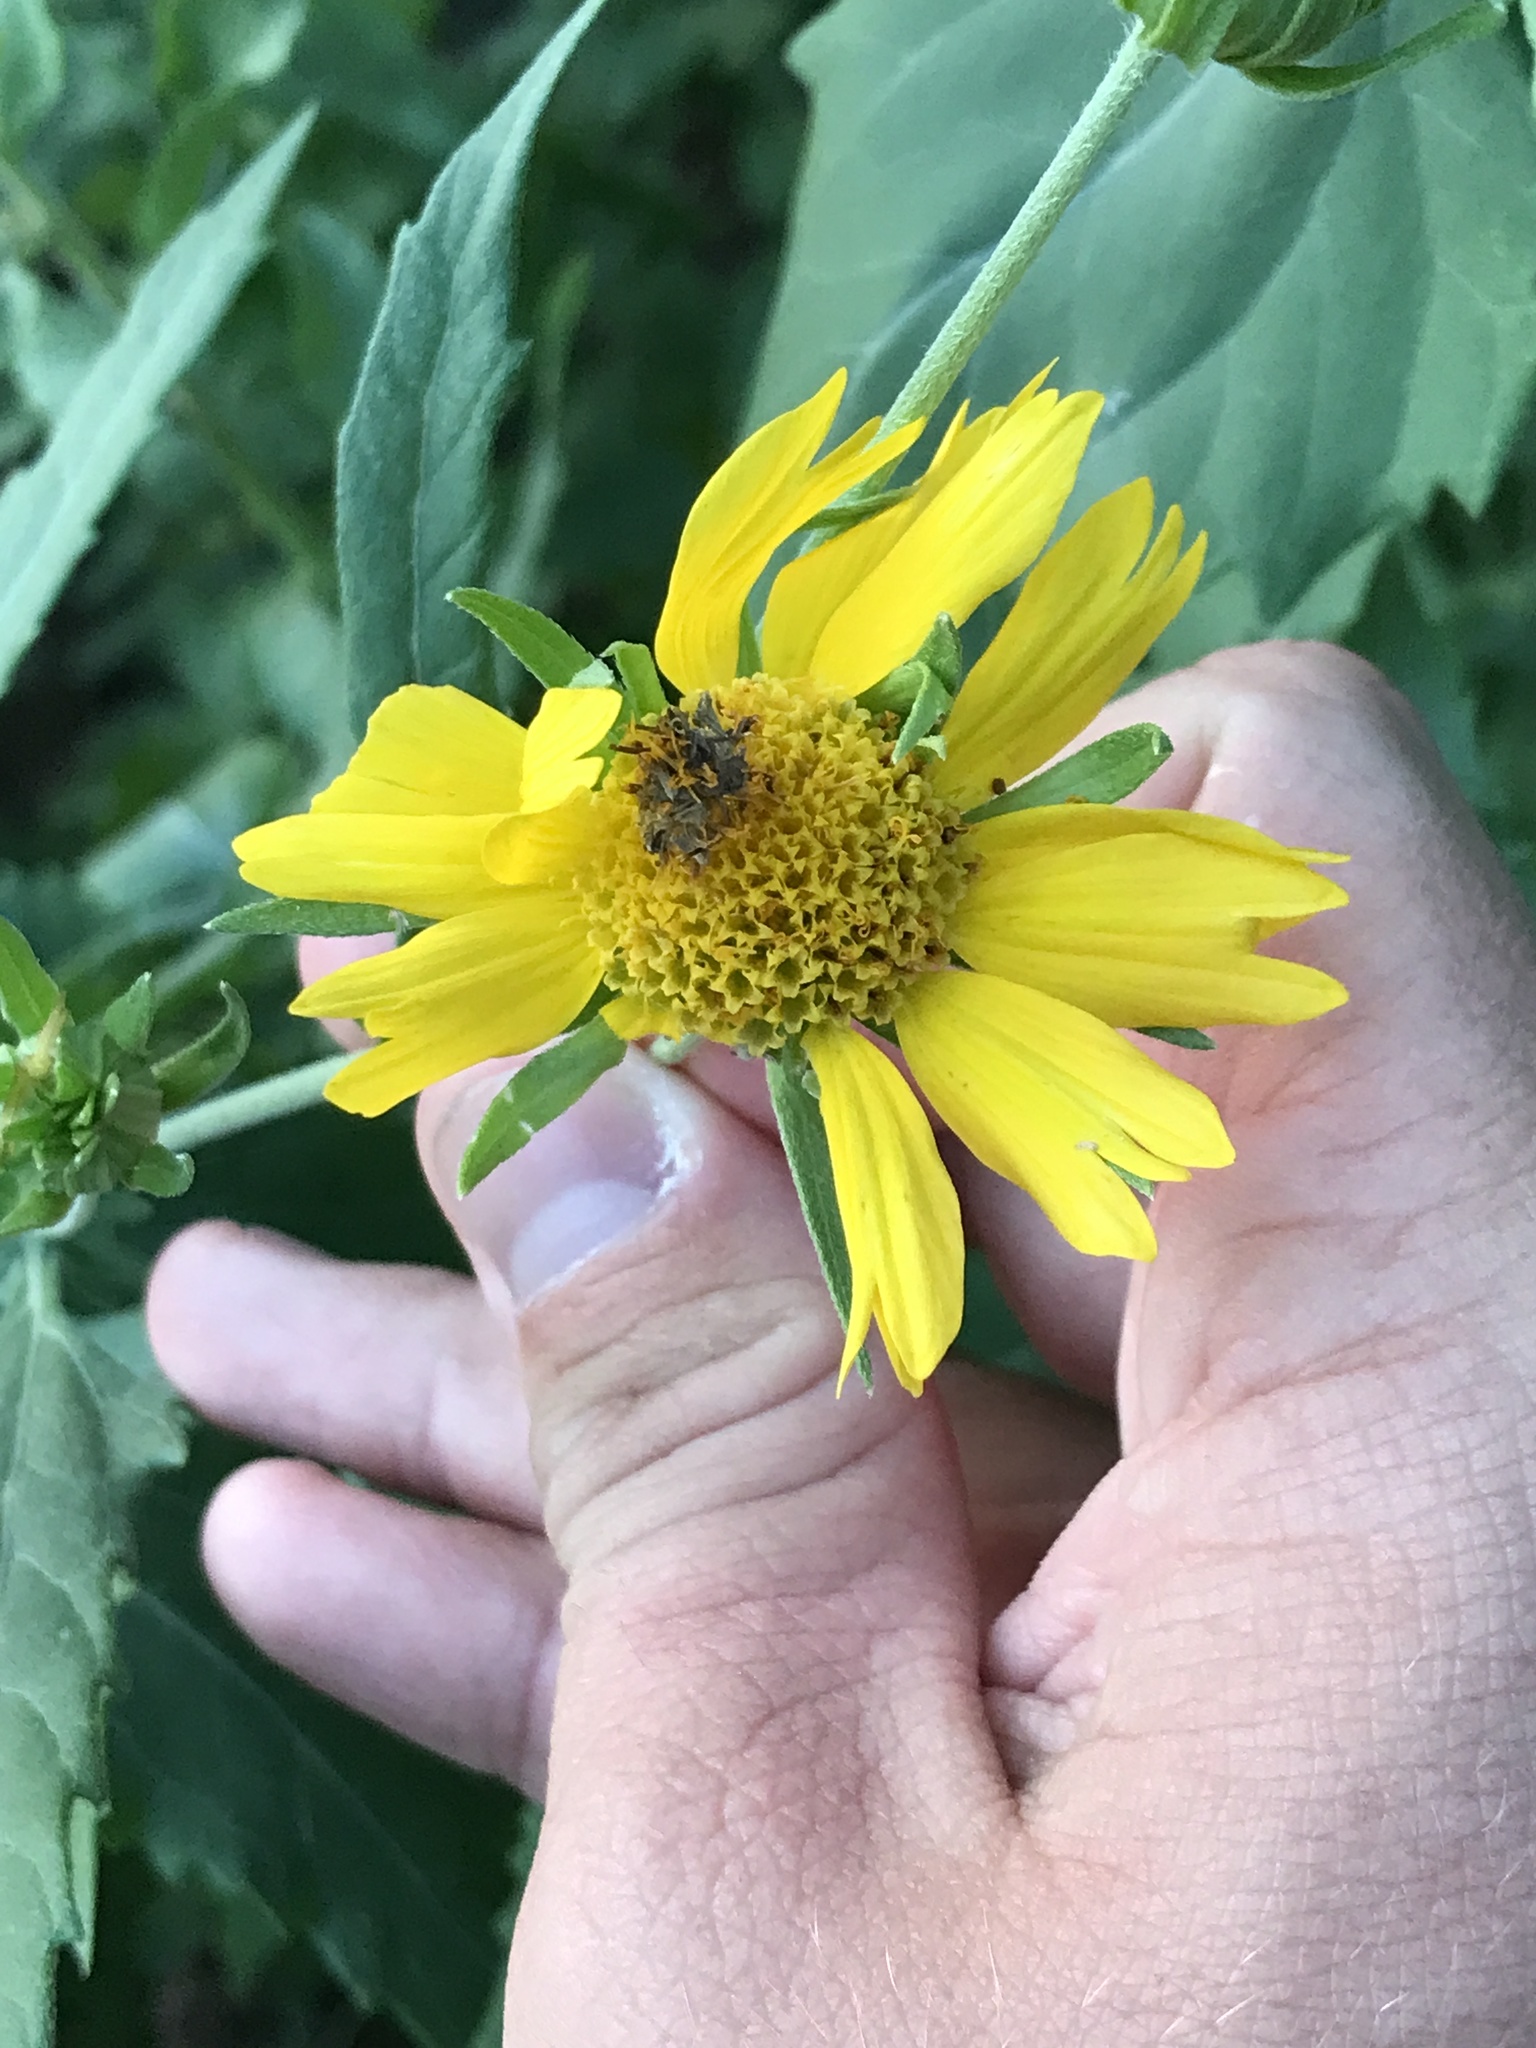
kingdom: Plantae
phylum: Tracheophyta
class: Magnoliopsida
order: Asterales
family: Asteraceae
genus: Verbesina
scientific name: Verbesina encelioides
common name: Golden crownbeard
